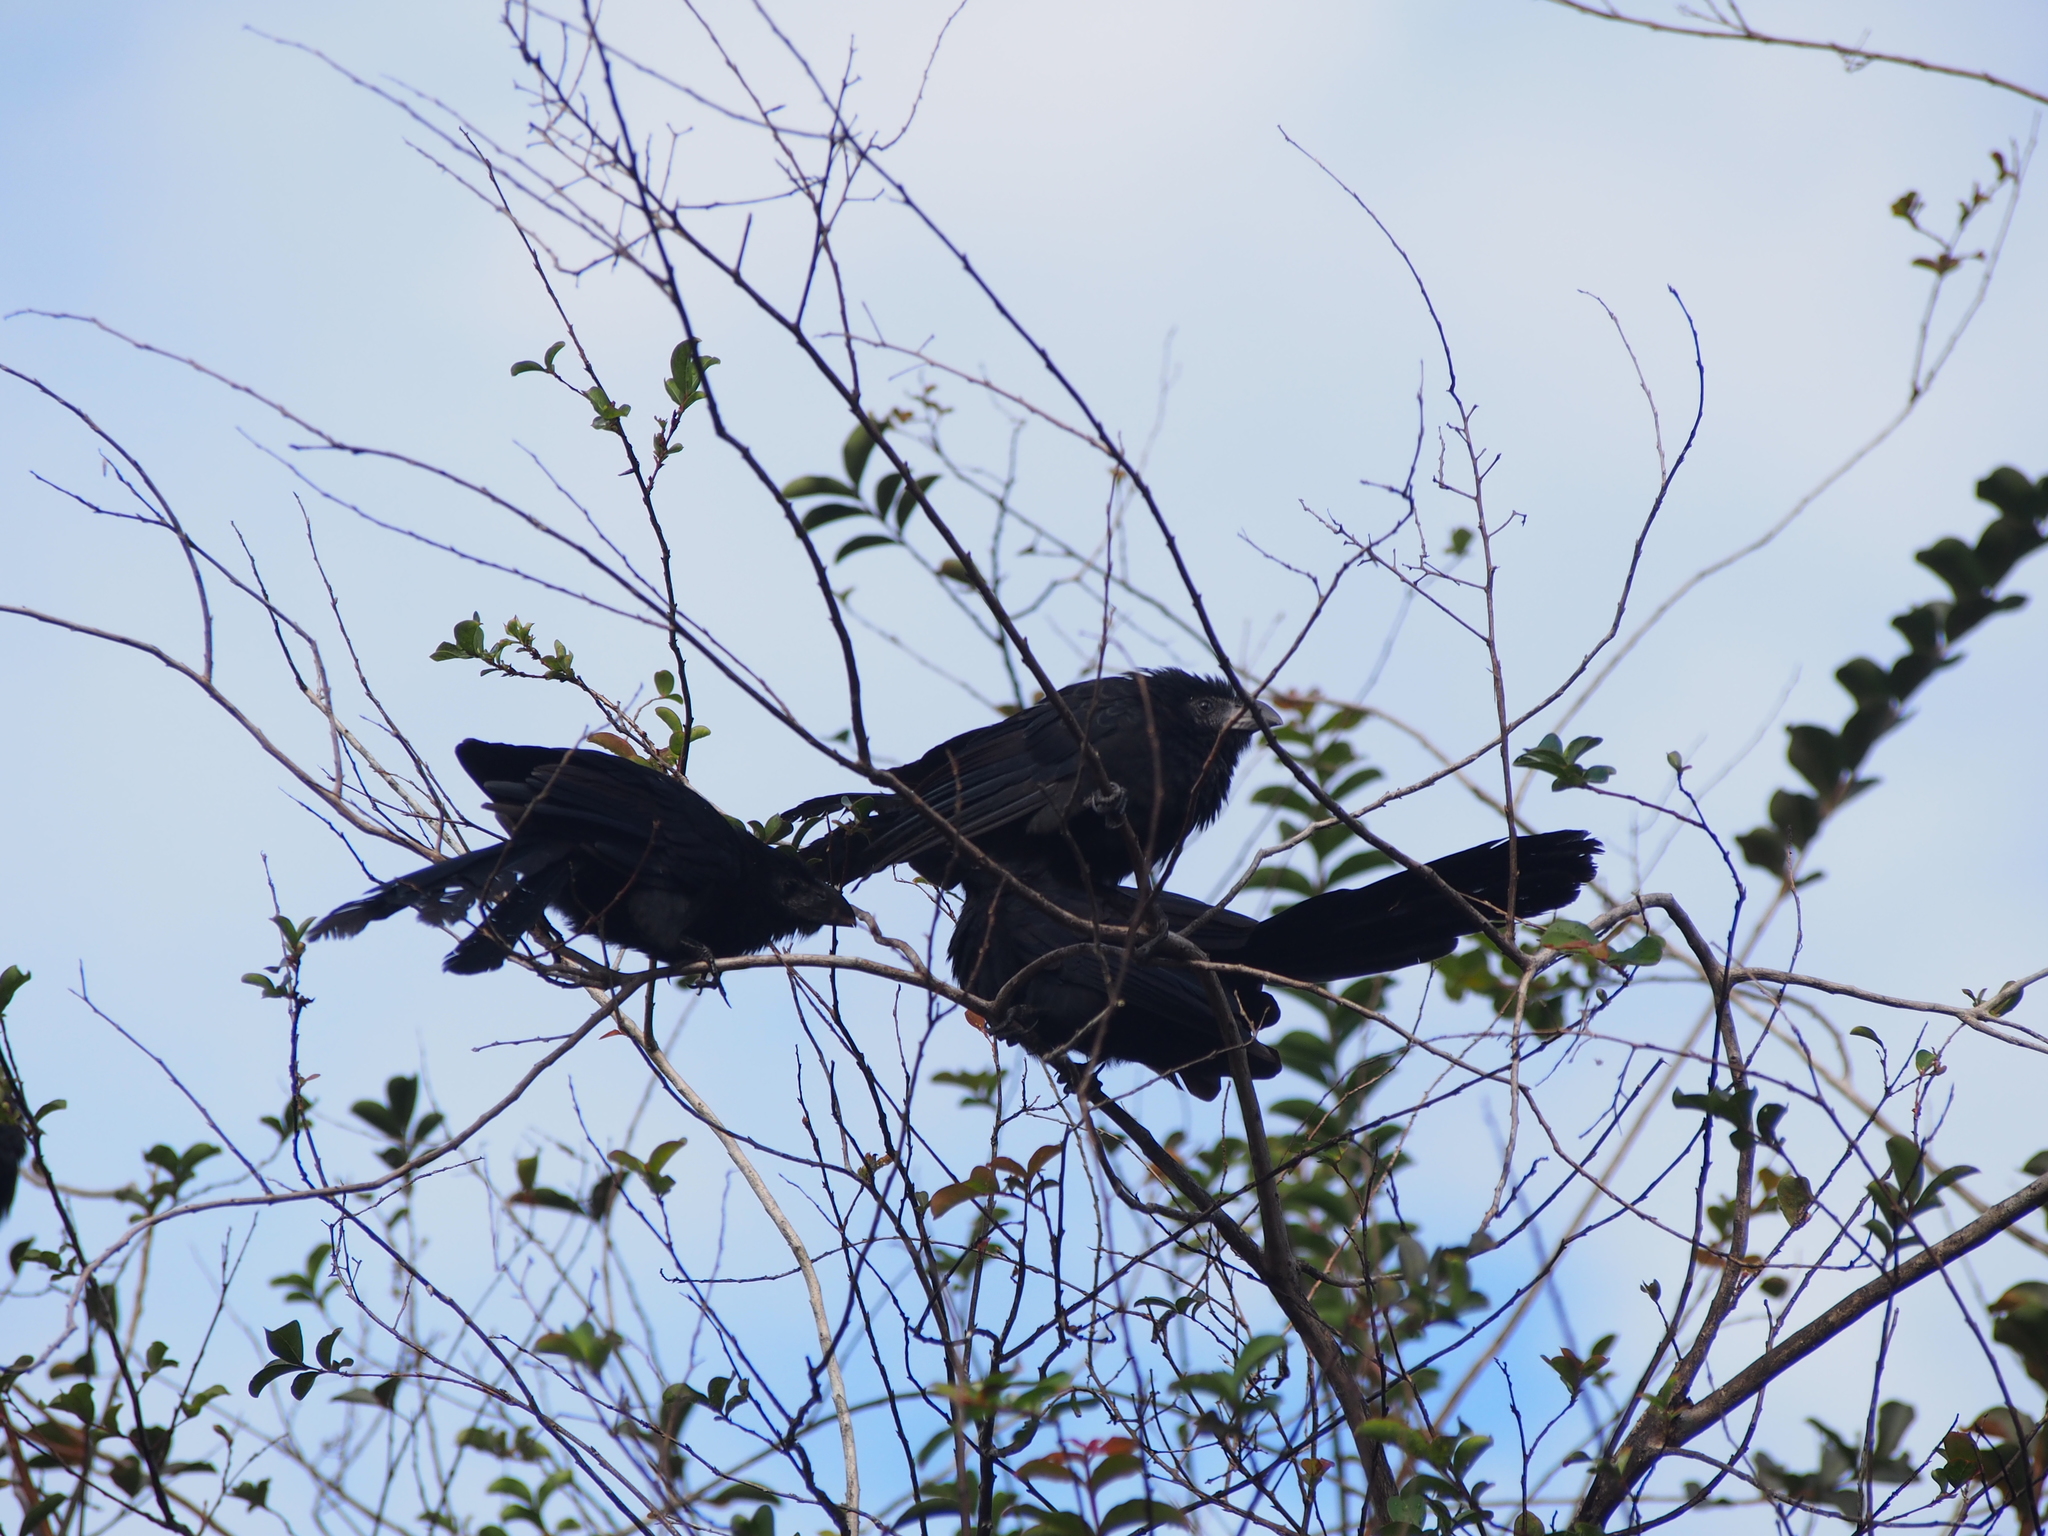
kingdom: Animalia
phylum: Chordata
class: Aves
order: Cuculiformes
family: Cuculidae
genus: Crotophaga
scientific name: Crotophaga ani
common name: Smooth-billed ani
